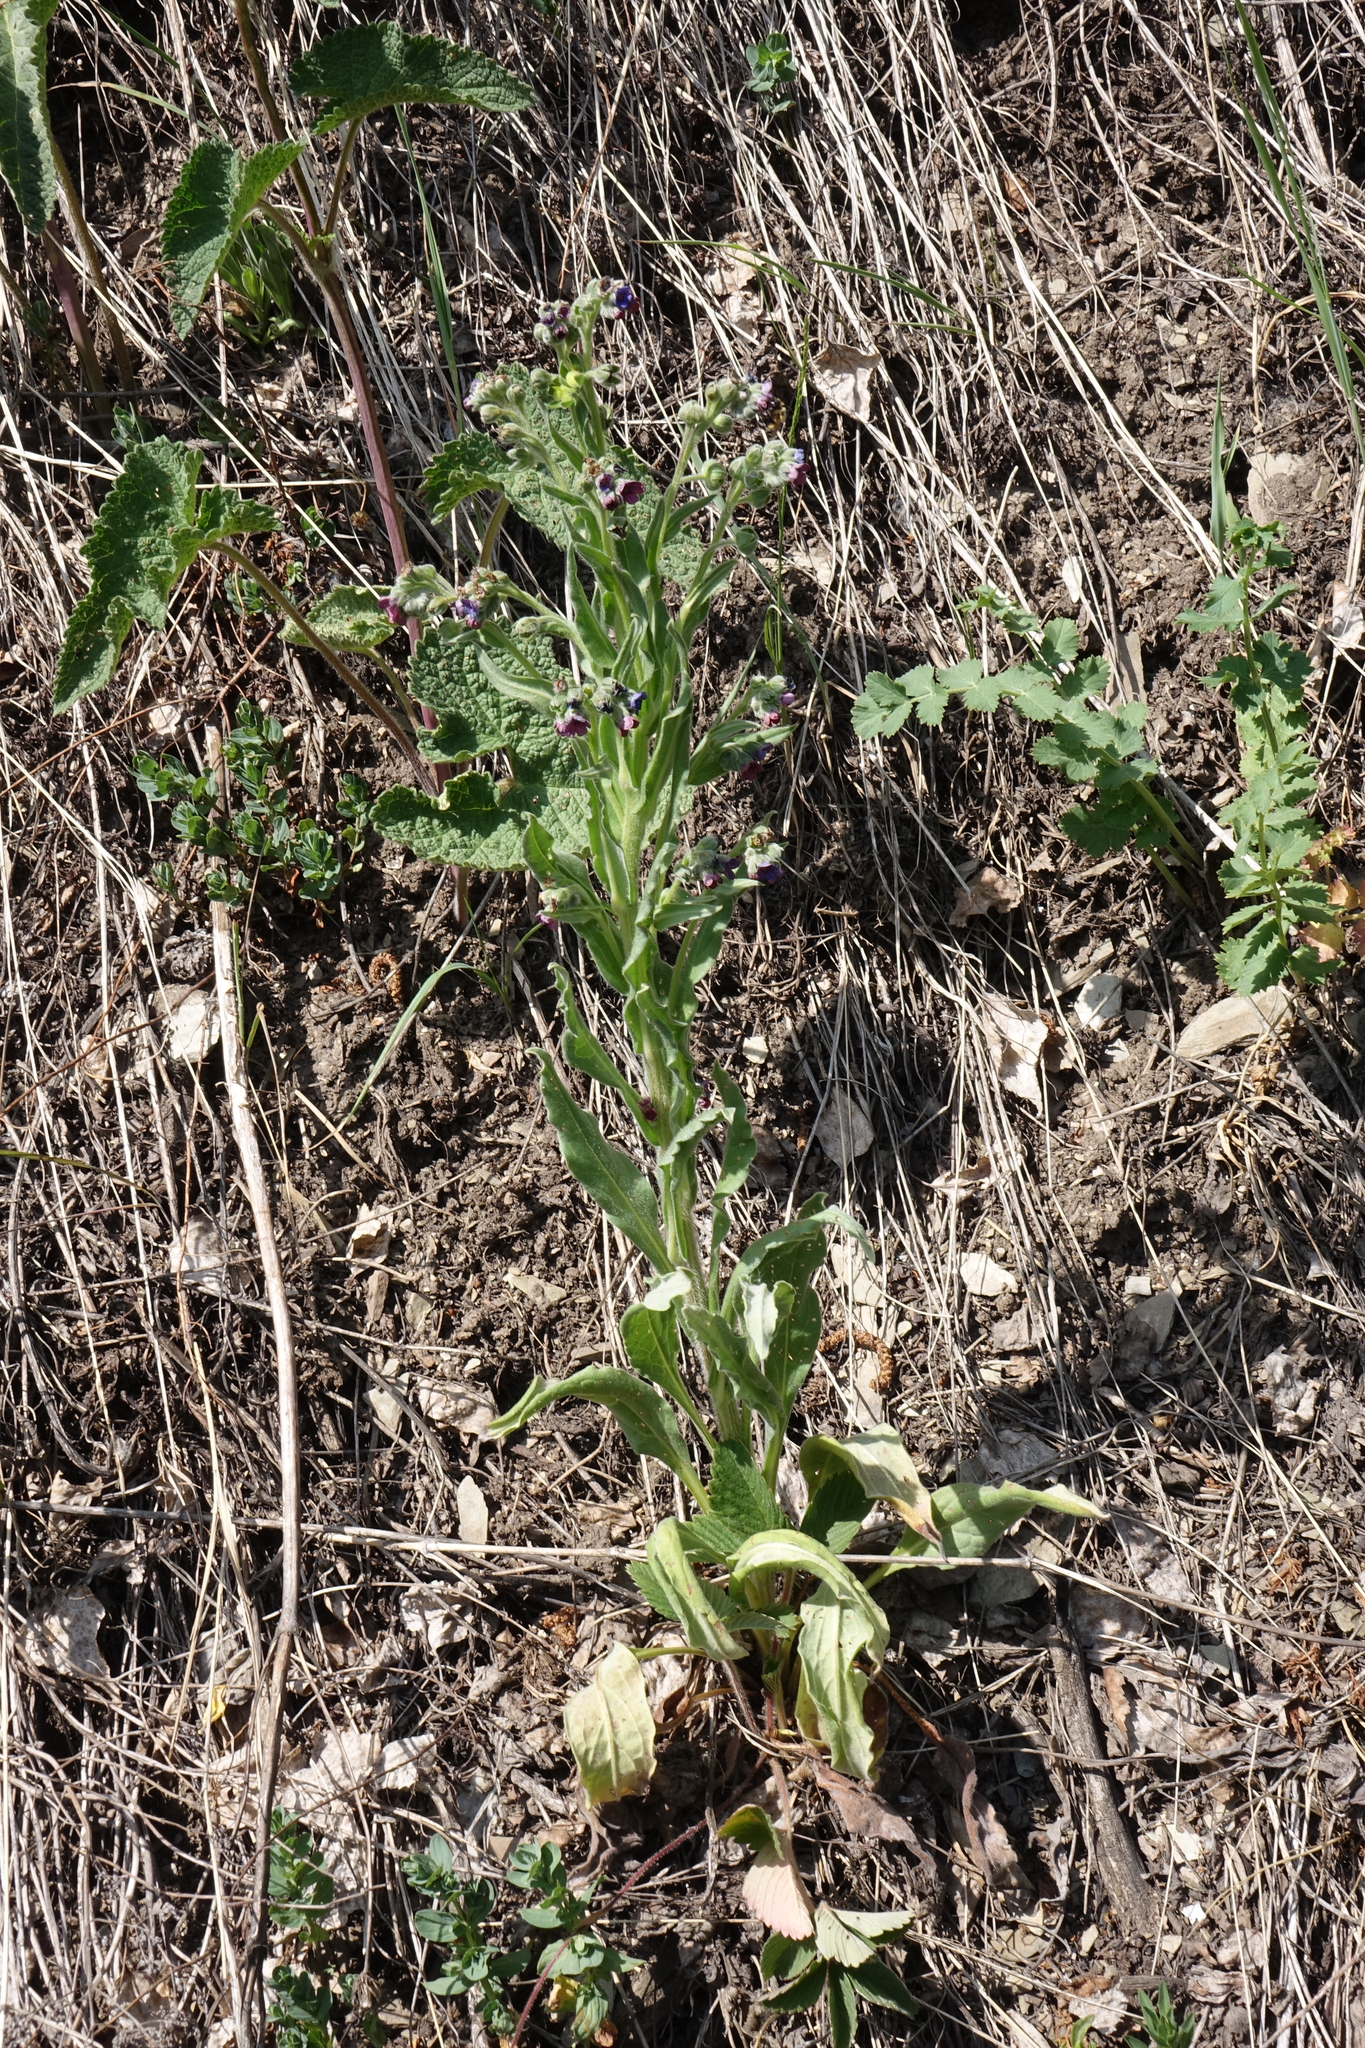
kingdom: Plantae
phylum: Tracheophyta
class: Magnoliopsida
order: Boraginales
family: Boraginaceae
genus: Cynoglossum
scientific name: Cynoglossum officinale
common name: Hound's-tongue
